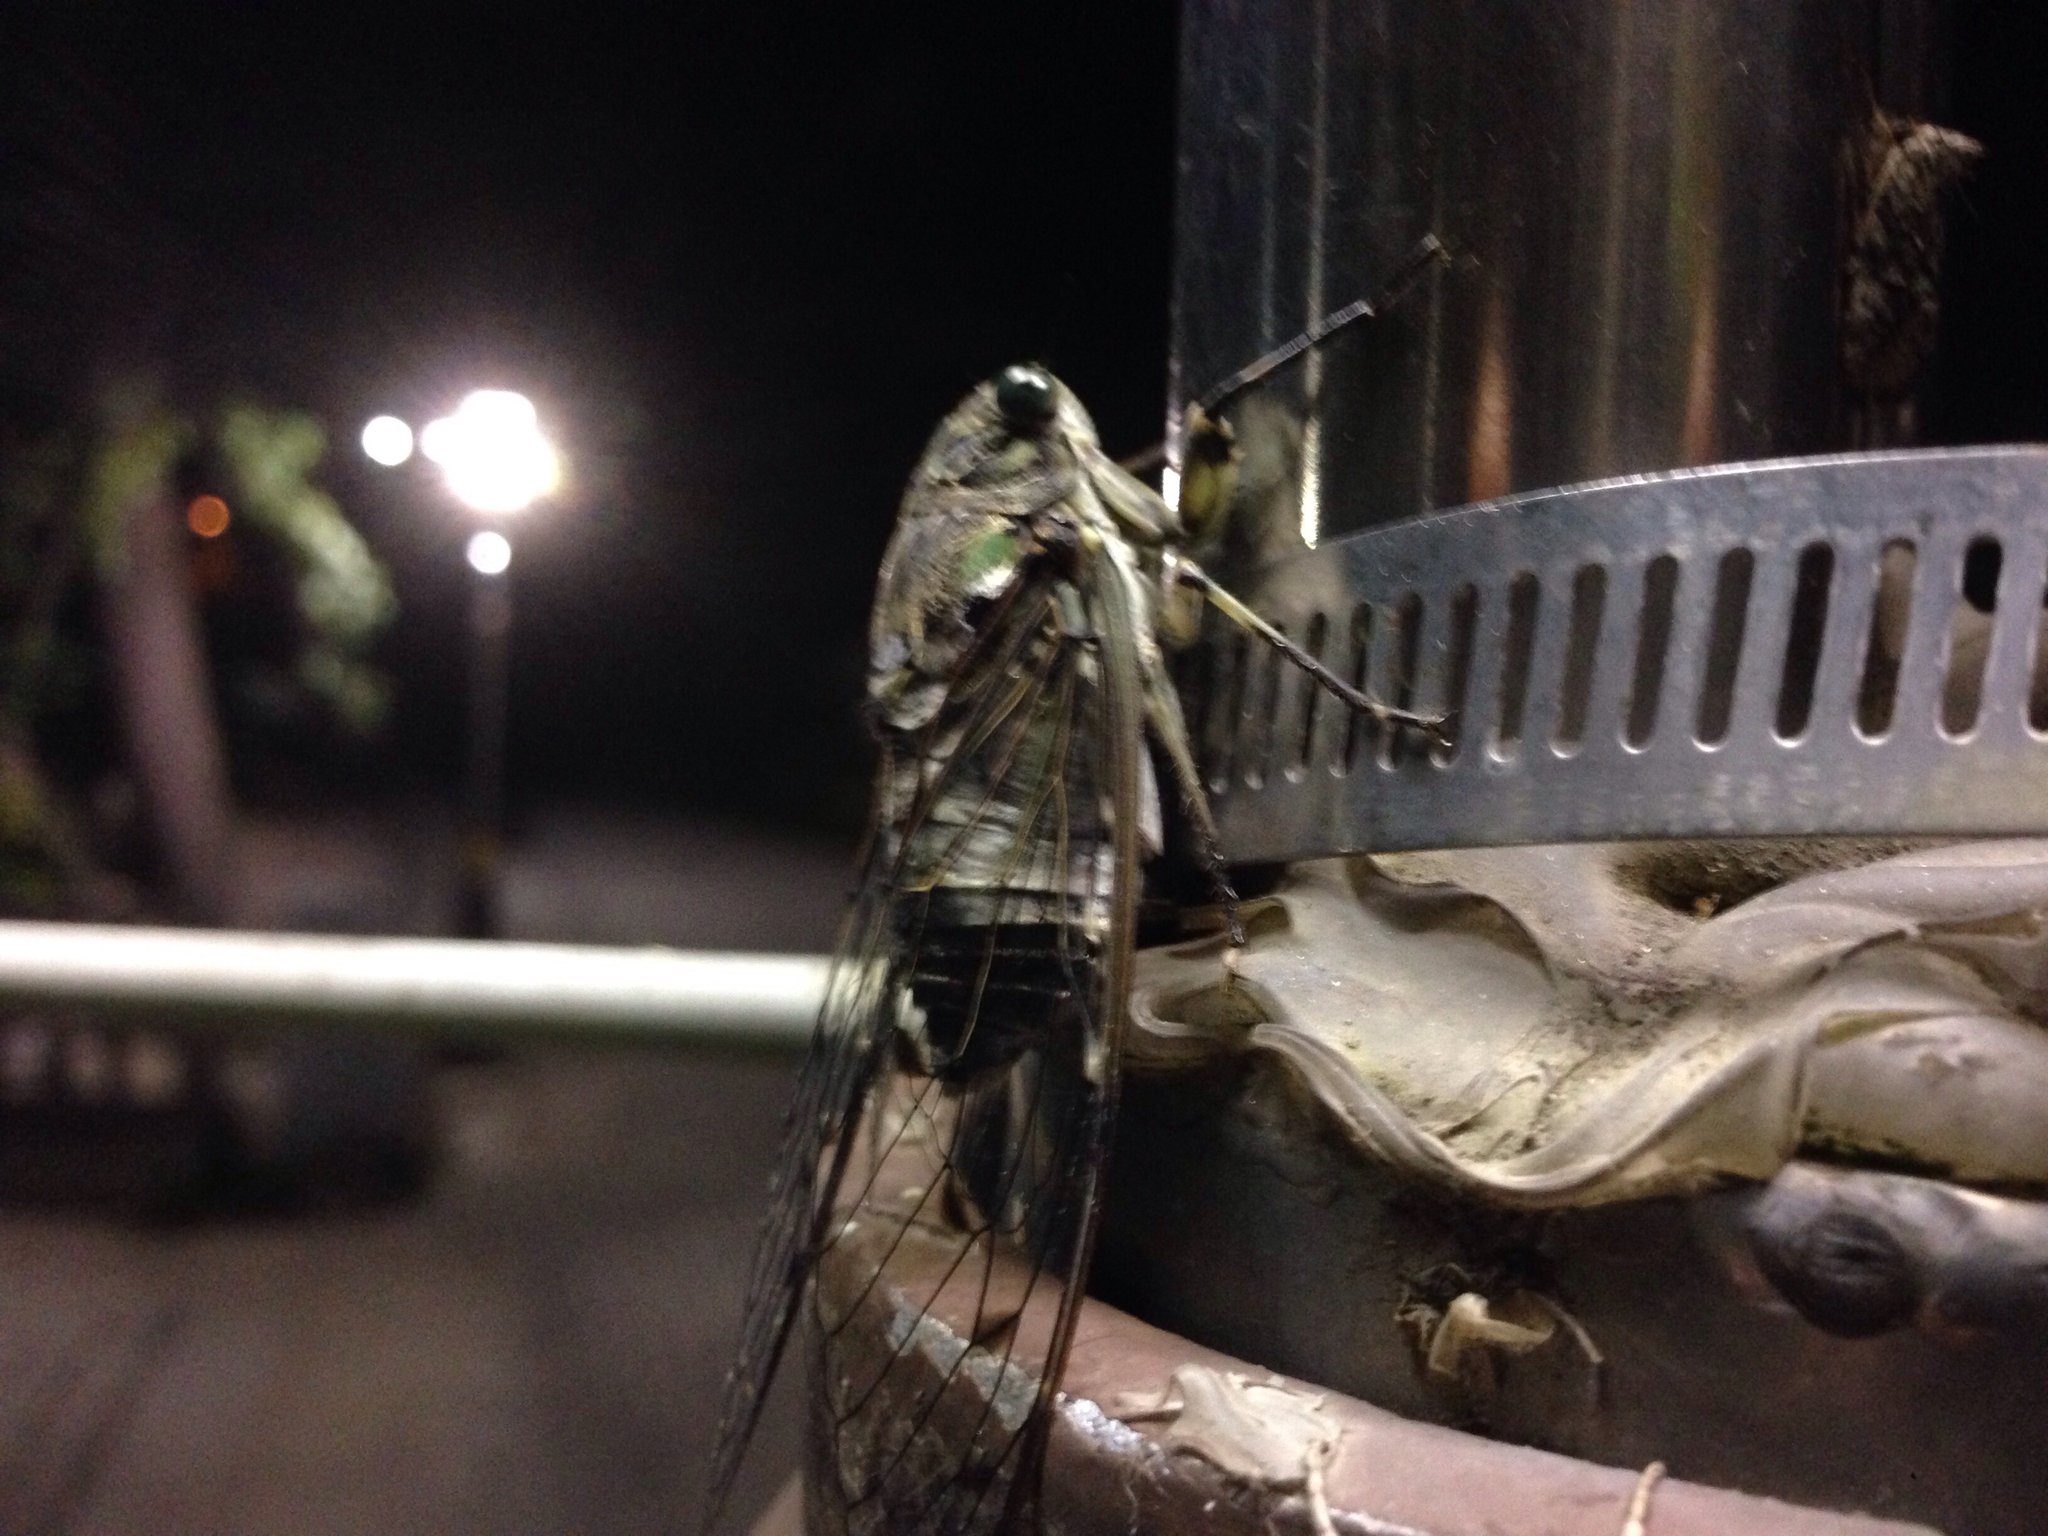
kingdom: Animalia
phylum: Arthropoda
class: Insecta
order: Hemiptera
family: Cicadidae
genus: Hyalessa
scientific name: Hyalessa maculaticollis
